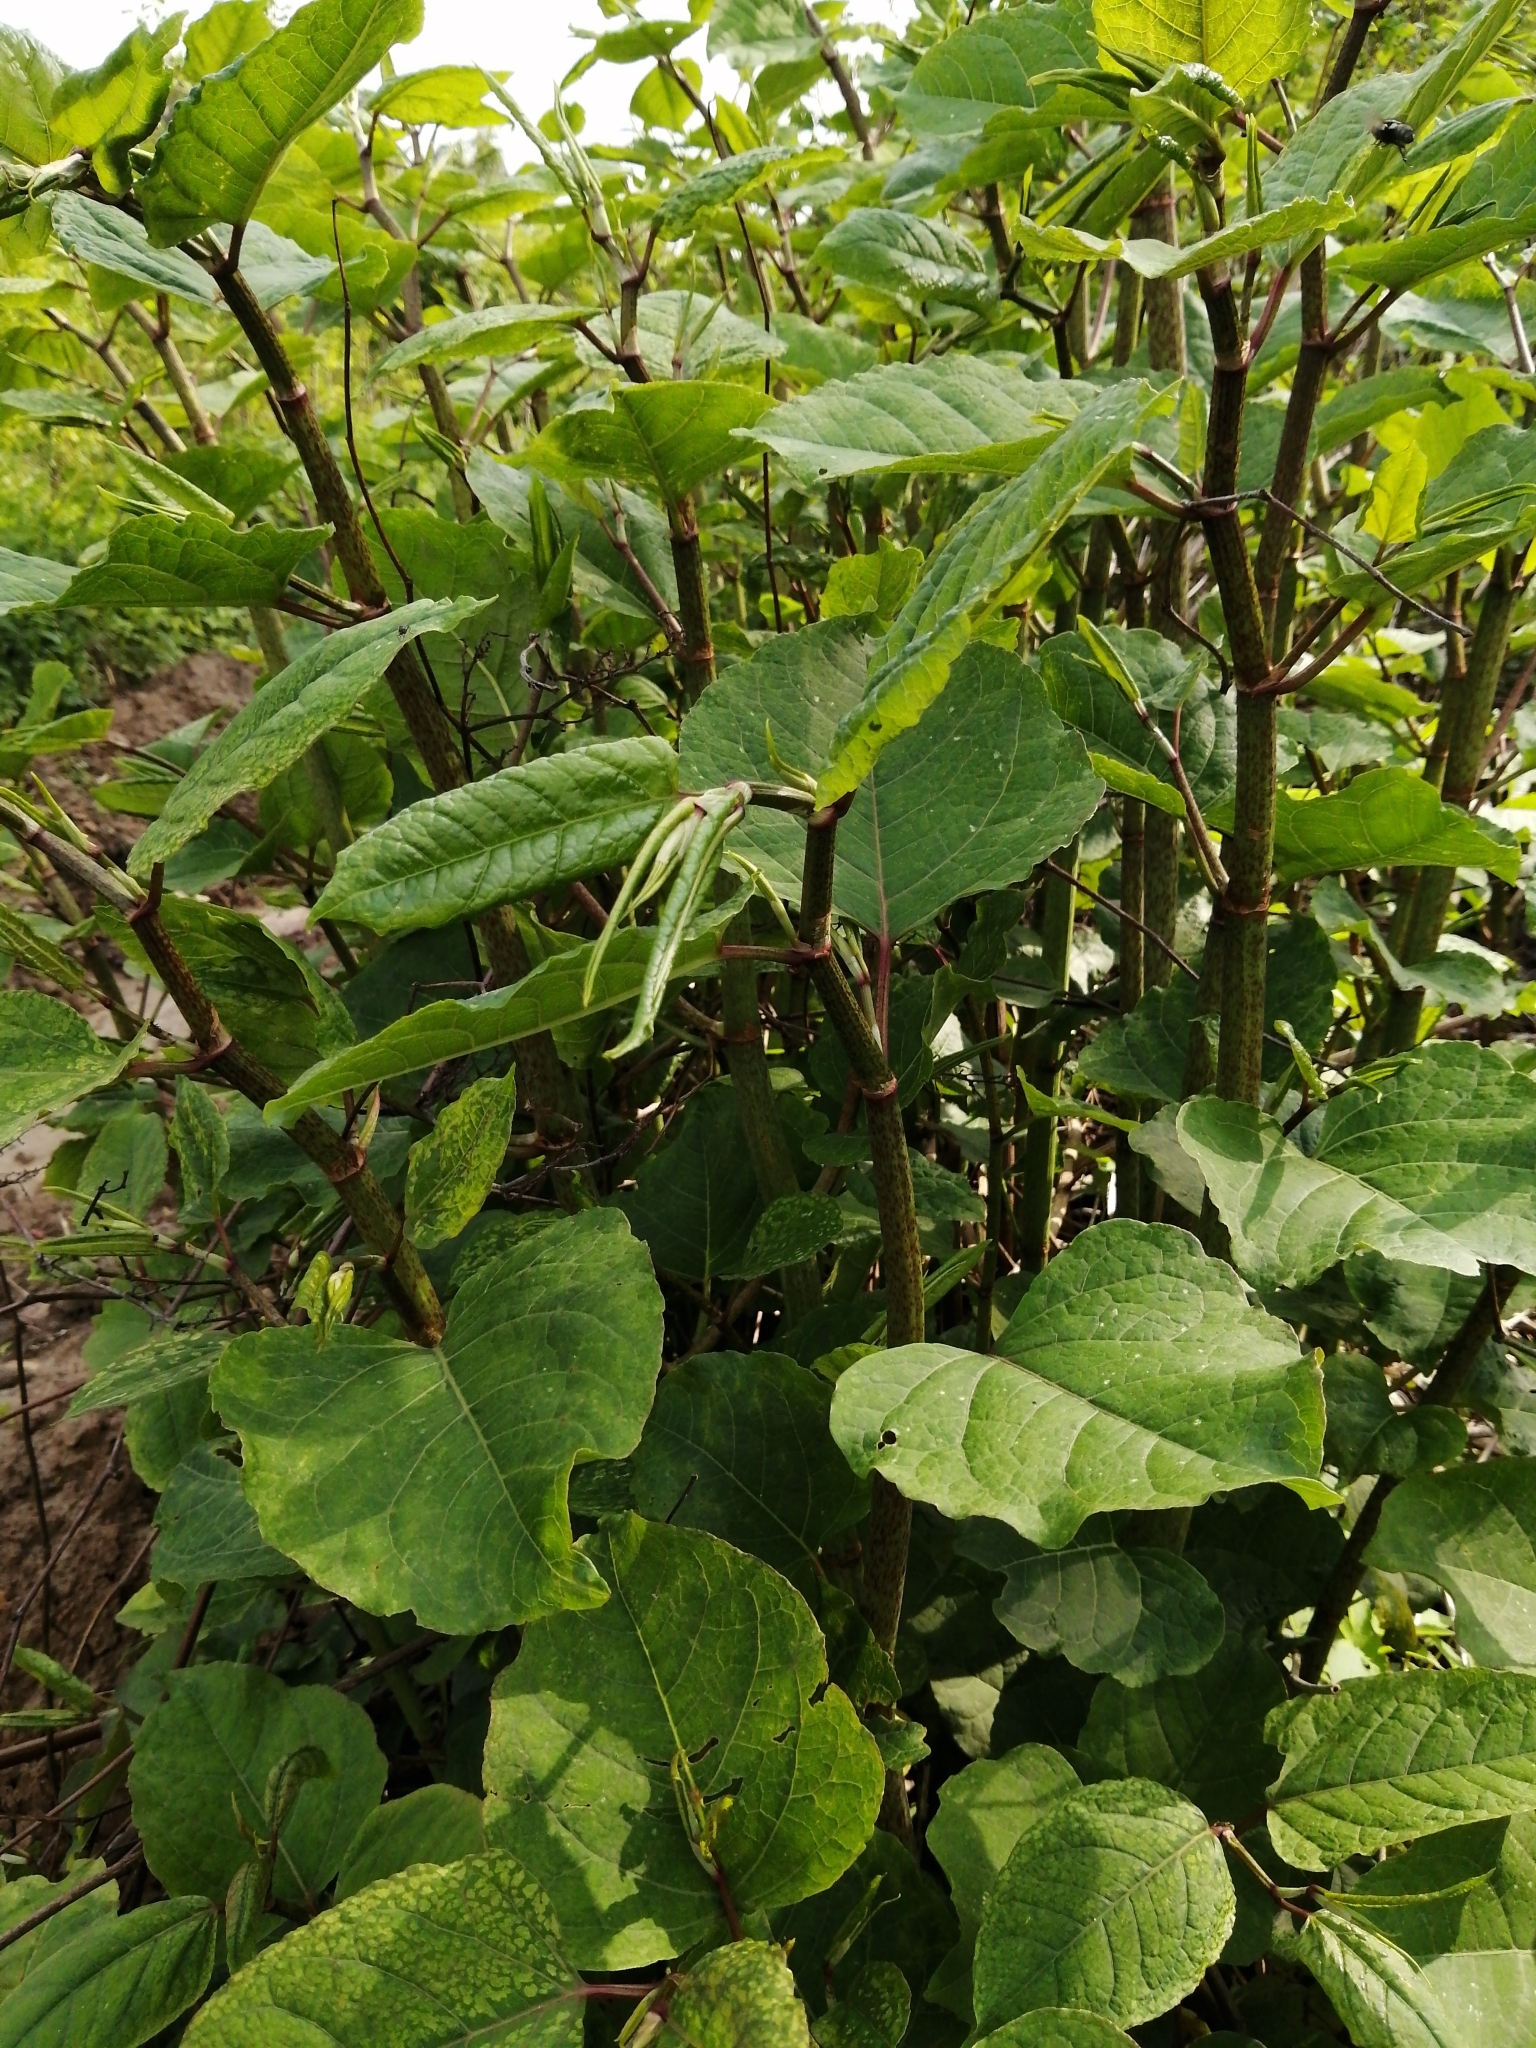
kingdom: Plantae
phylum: Tracheophyta
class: Magnoliopsida
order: Caryophyllales
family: Polygonaceae
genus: Reynoutria
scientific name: Reynoutria japonica
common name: Japanese knotweed
